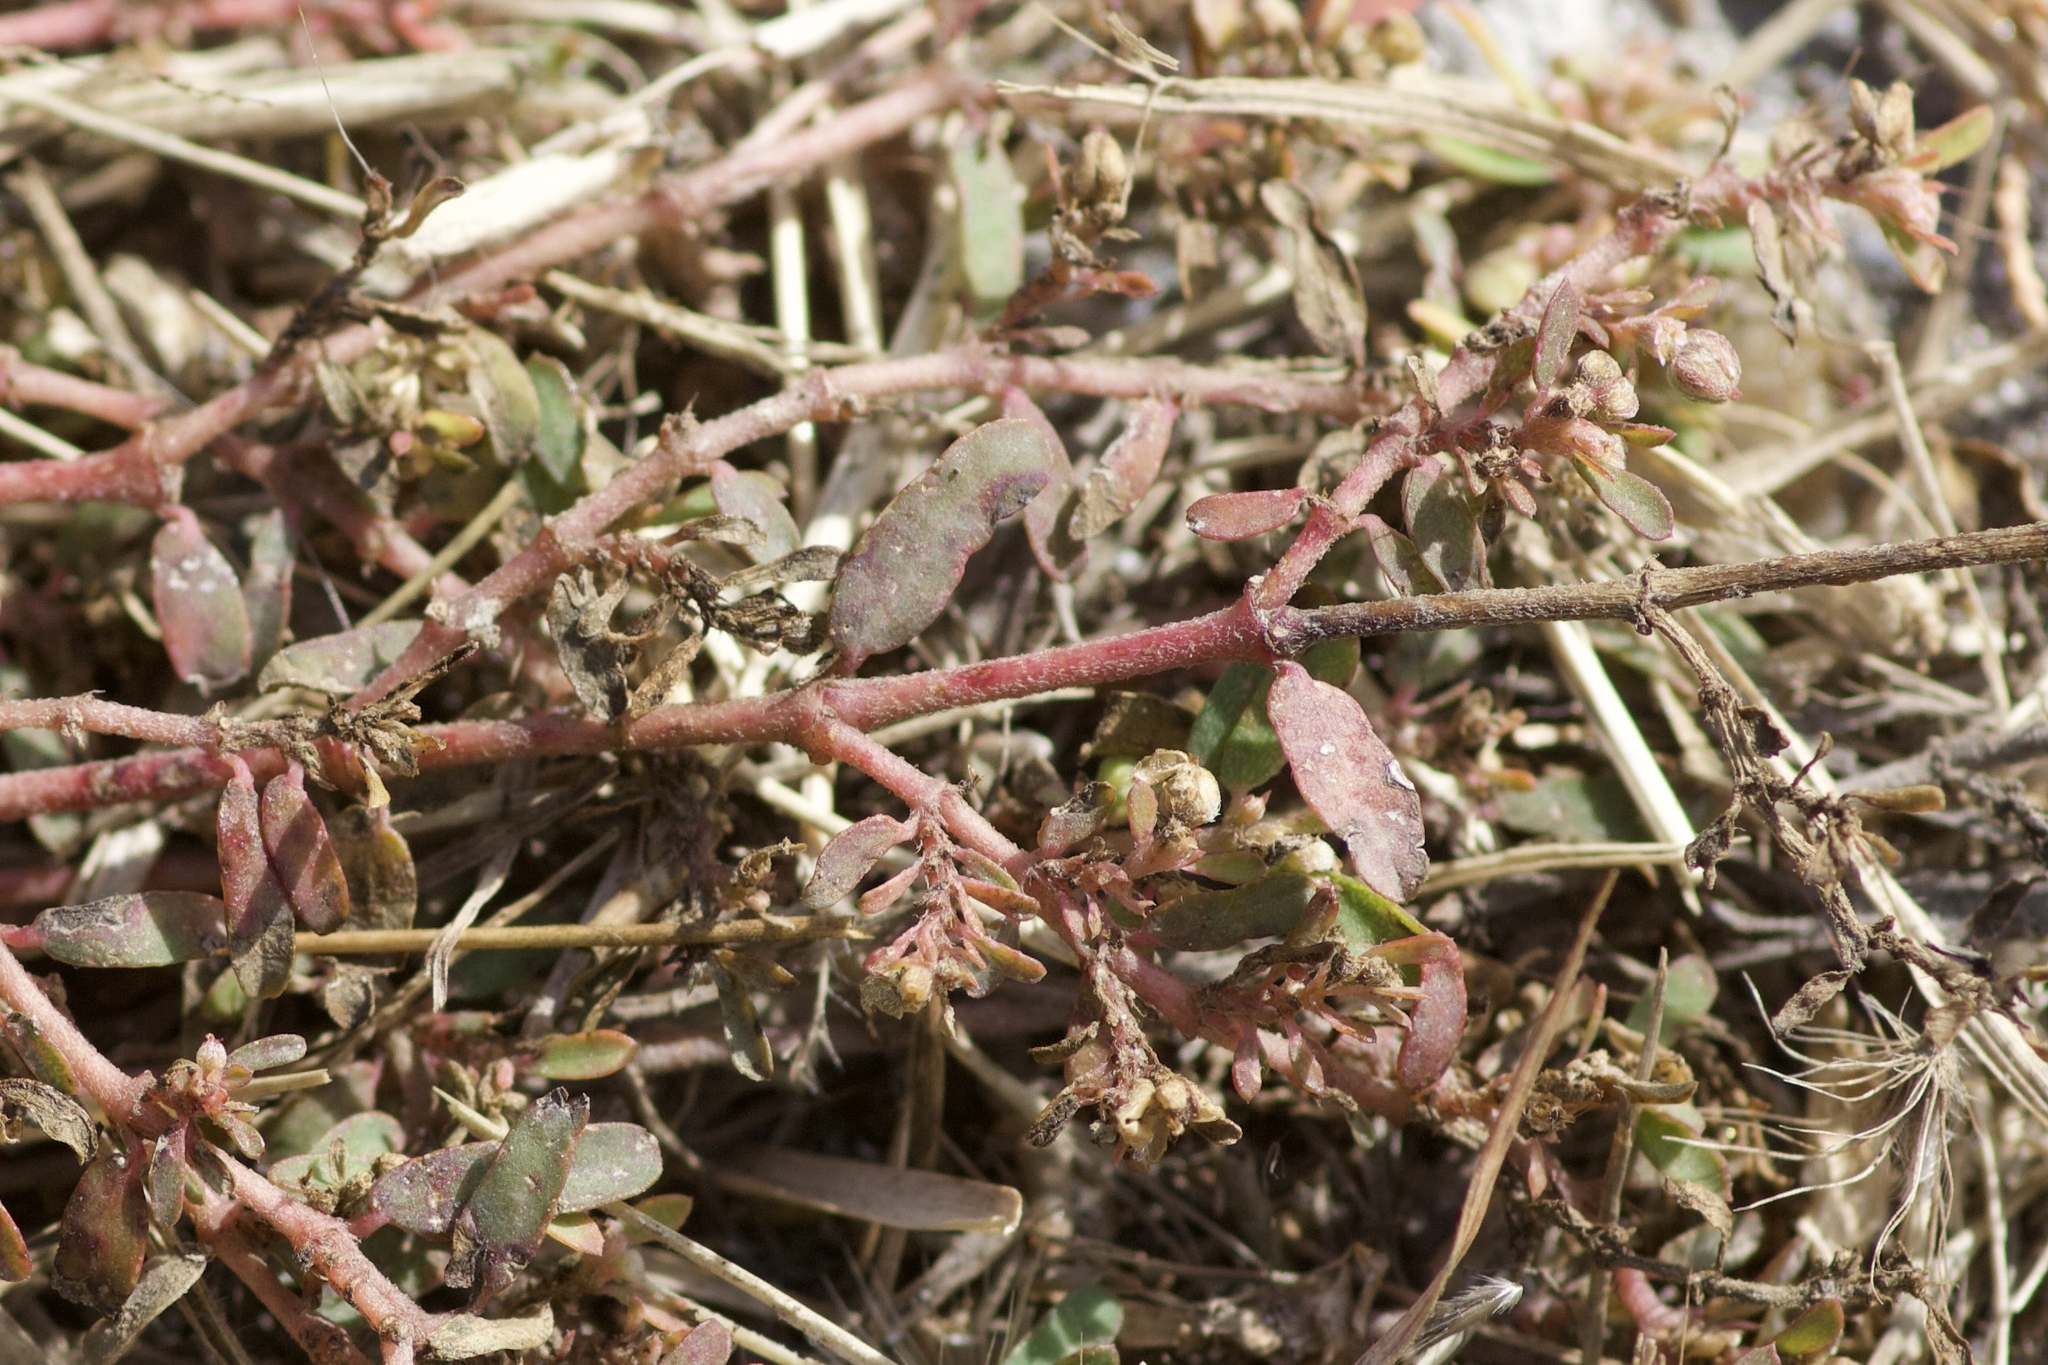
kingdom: Plantae
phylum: Tracheophyta
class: Magnoliopsida
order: Malpighiales
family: Euphorbiaceae
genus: Euphorbia
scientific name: Euphorbia maculata
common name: Spotted spurge
